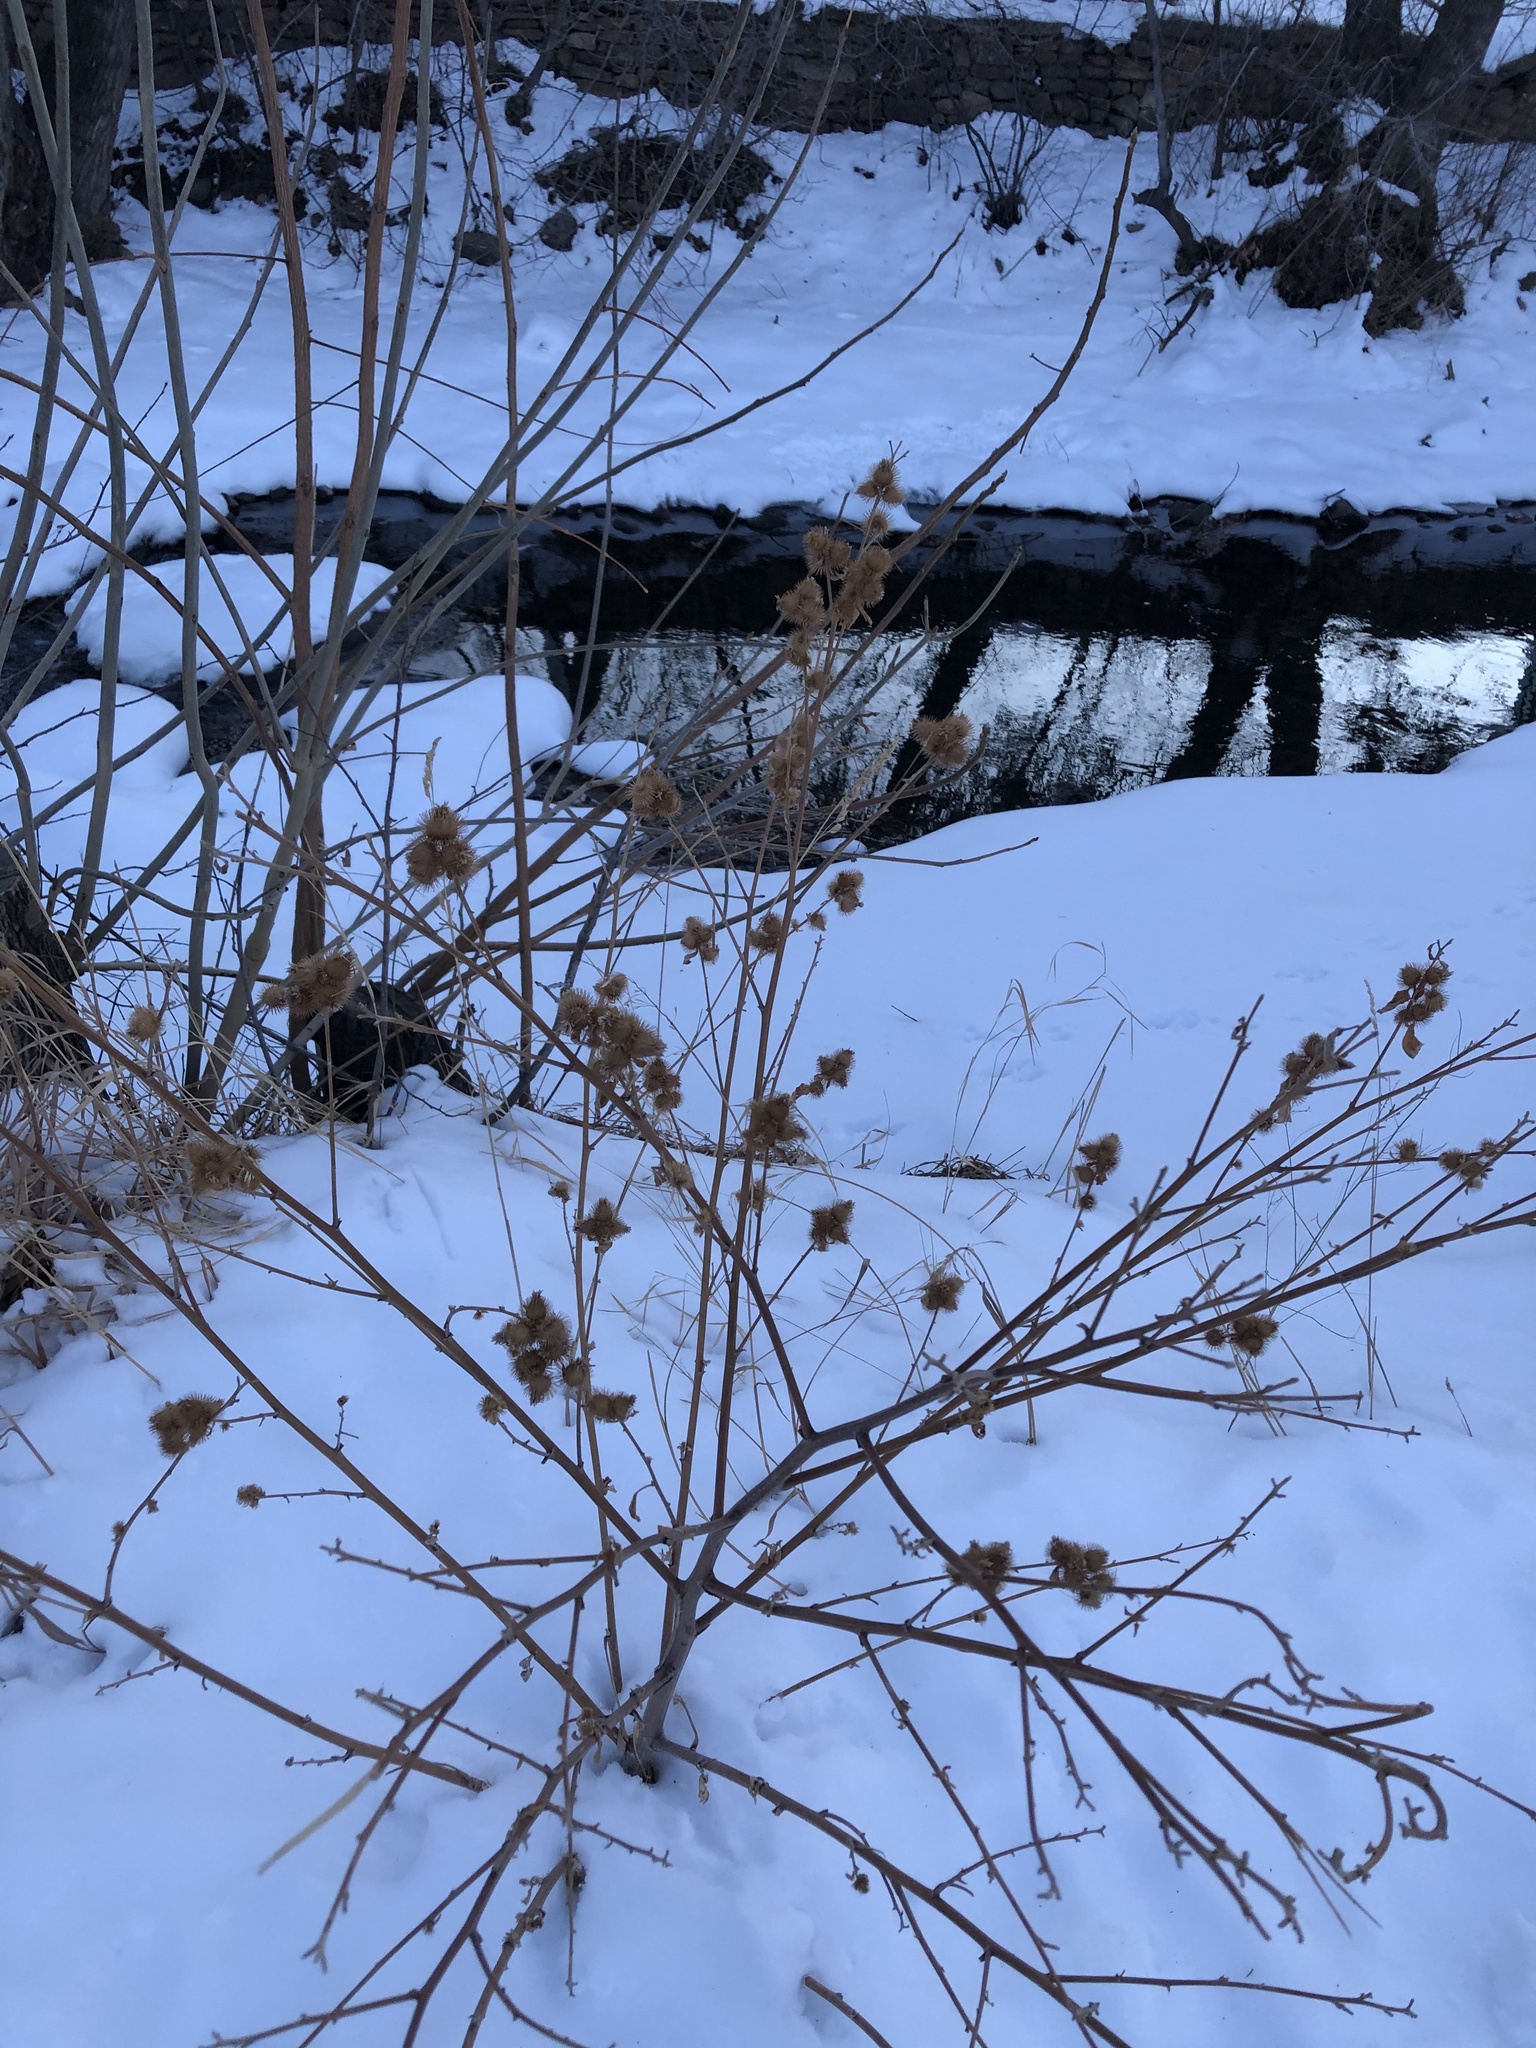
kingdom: Plantae
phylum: Tracheophyta
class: Magnoliopsida
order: Asterales
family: Asteraceae
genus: Arctium
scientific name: Arctium minus
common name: Lesser burdock
